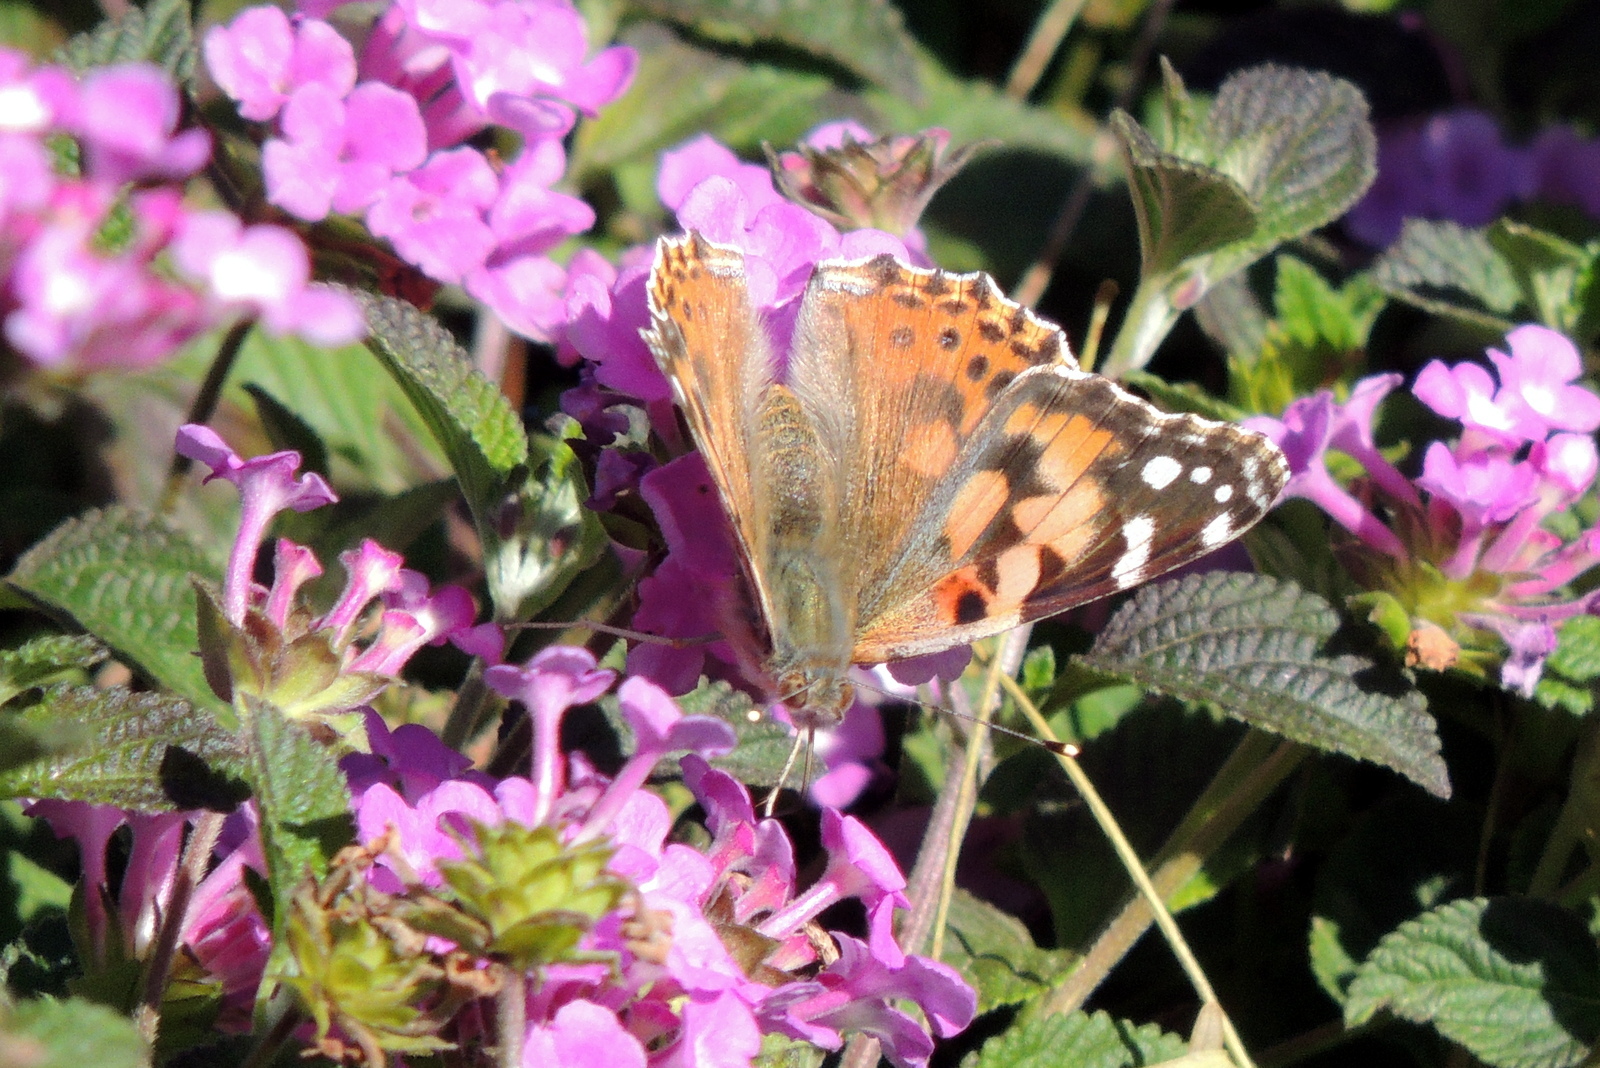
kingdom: Animalia
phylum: Arthropoda
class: Insecta
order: Lepidoptera
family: Nymphalidae
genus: Vanessa
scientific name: Vanessa cardui
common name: Painted lady
